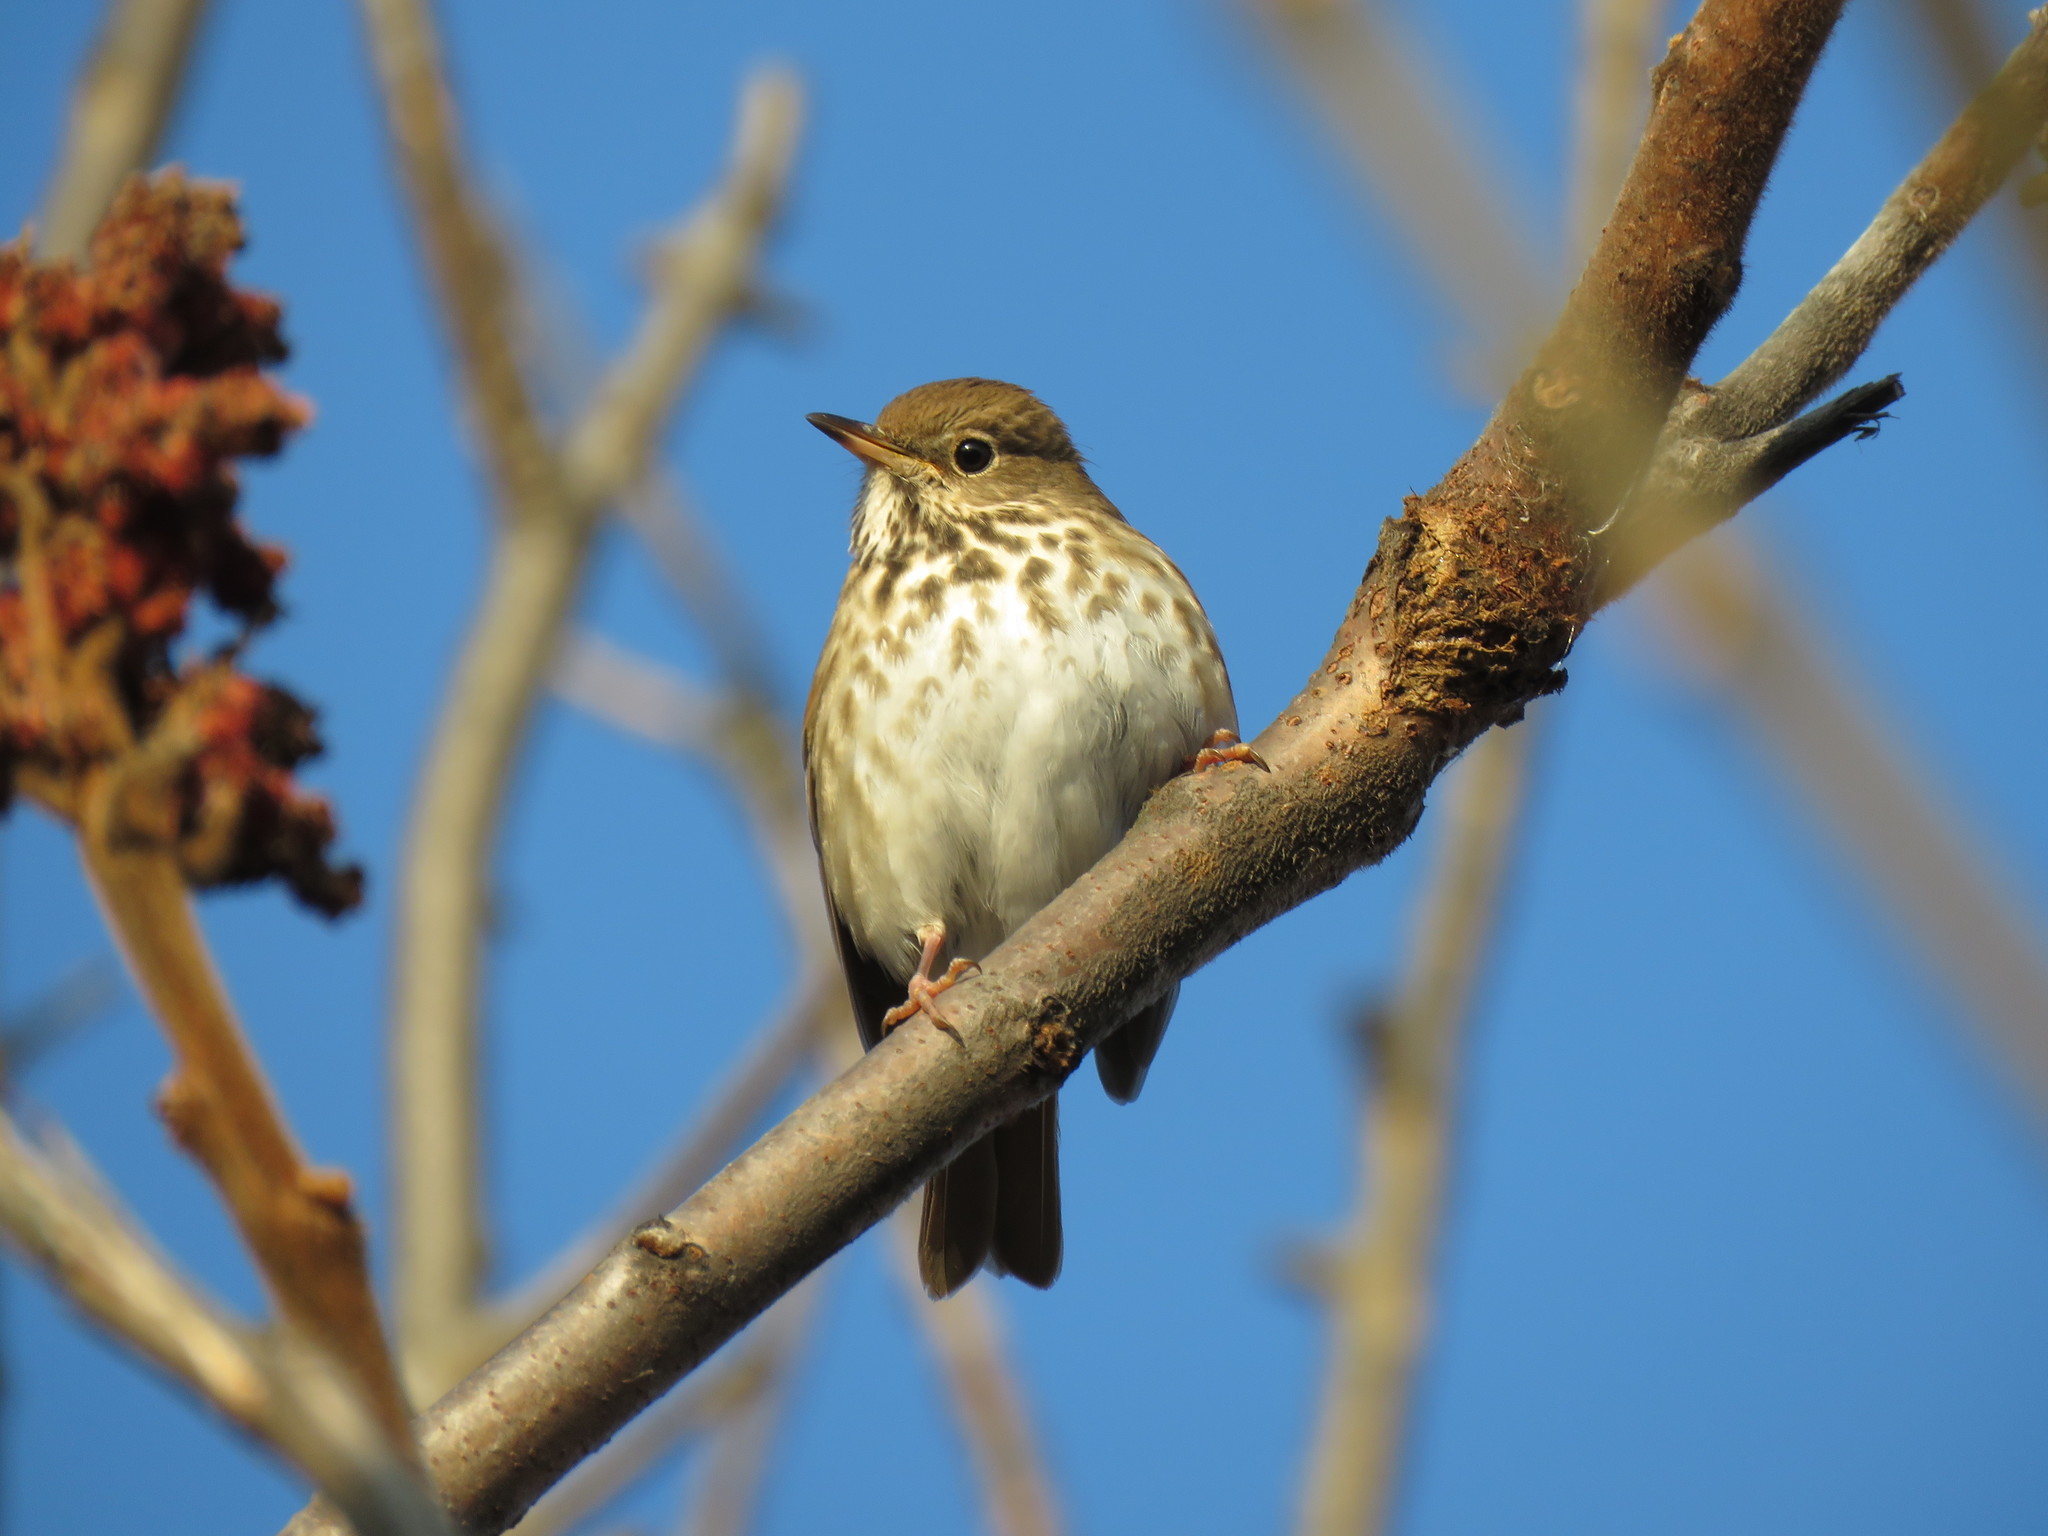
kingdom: Animalia
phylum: Chordata
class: Aves
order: Passeriformes
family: Turdidae
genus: Catharus
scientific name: Catharus guttatus
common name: Hermit thrush
